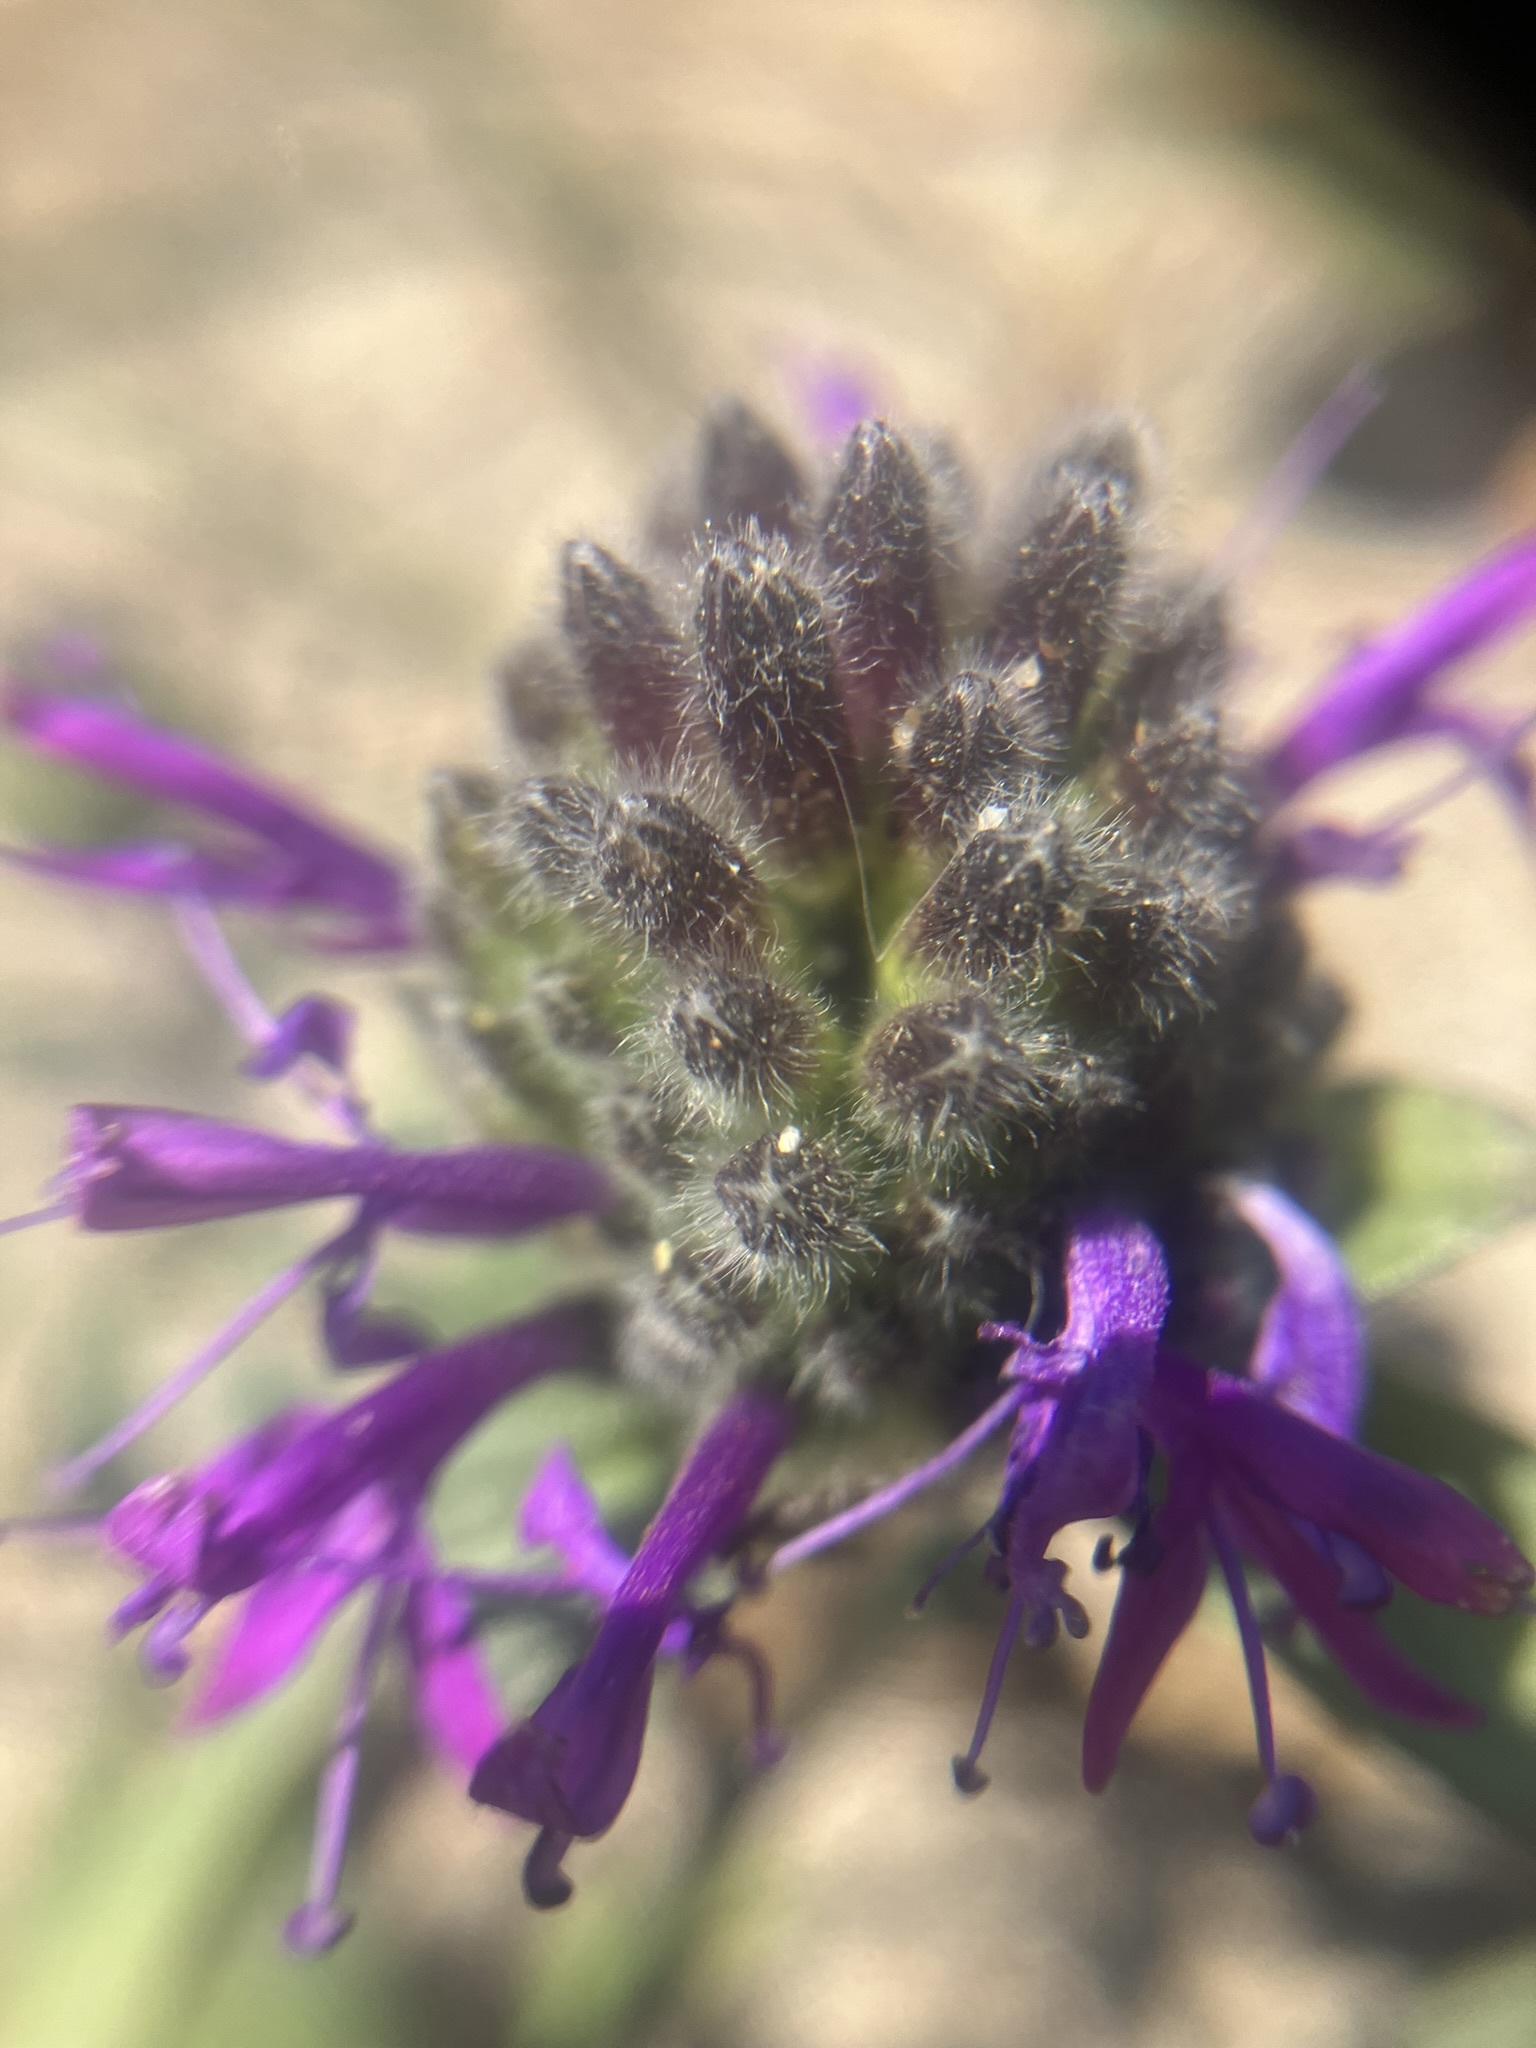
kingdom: Plantae
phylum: Tracheophyta
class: Magnoliopsida
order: Lamiales
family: Lamiaceae
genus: Monardella
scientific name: Monardella sinuata
